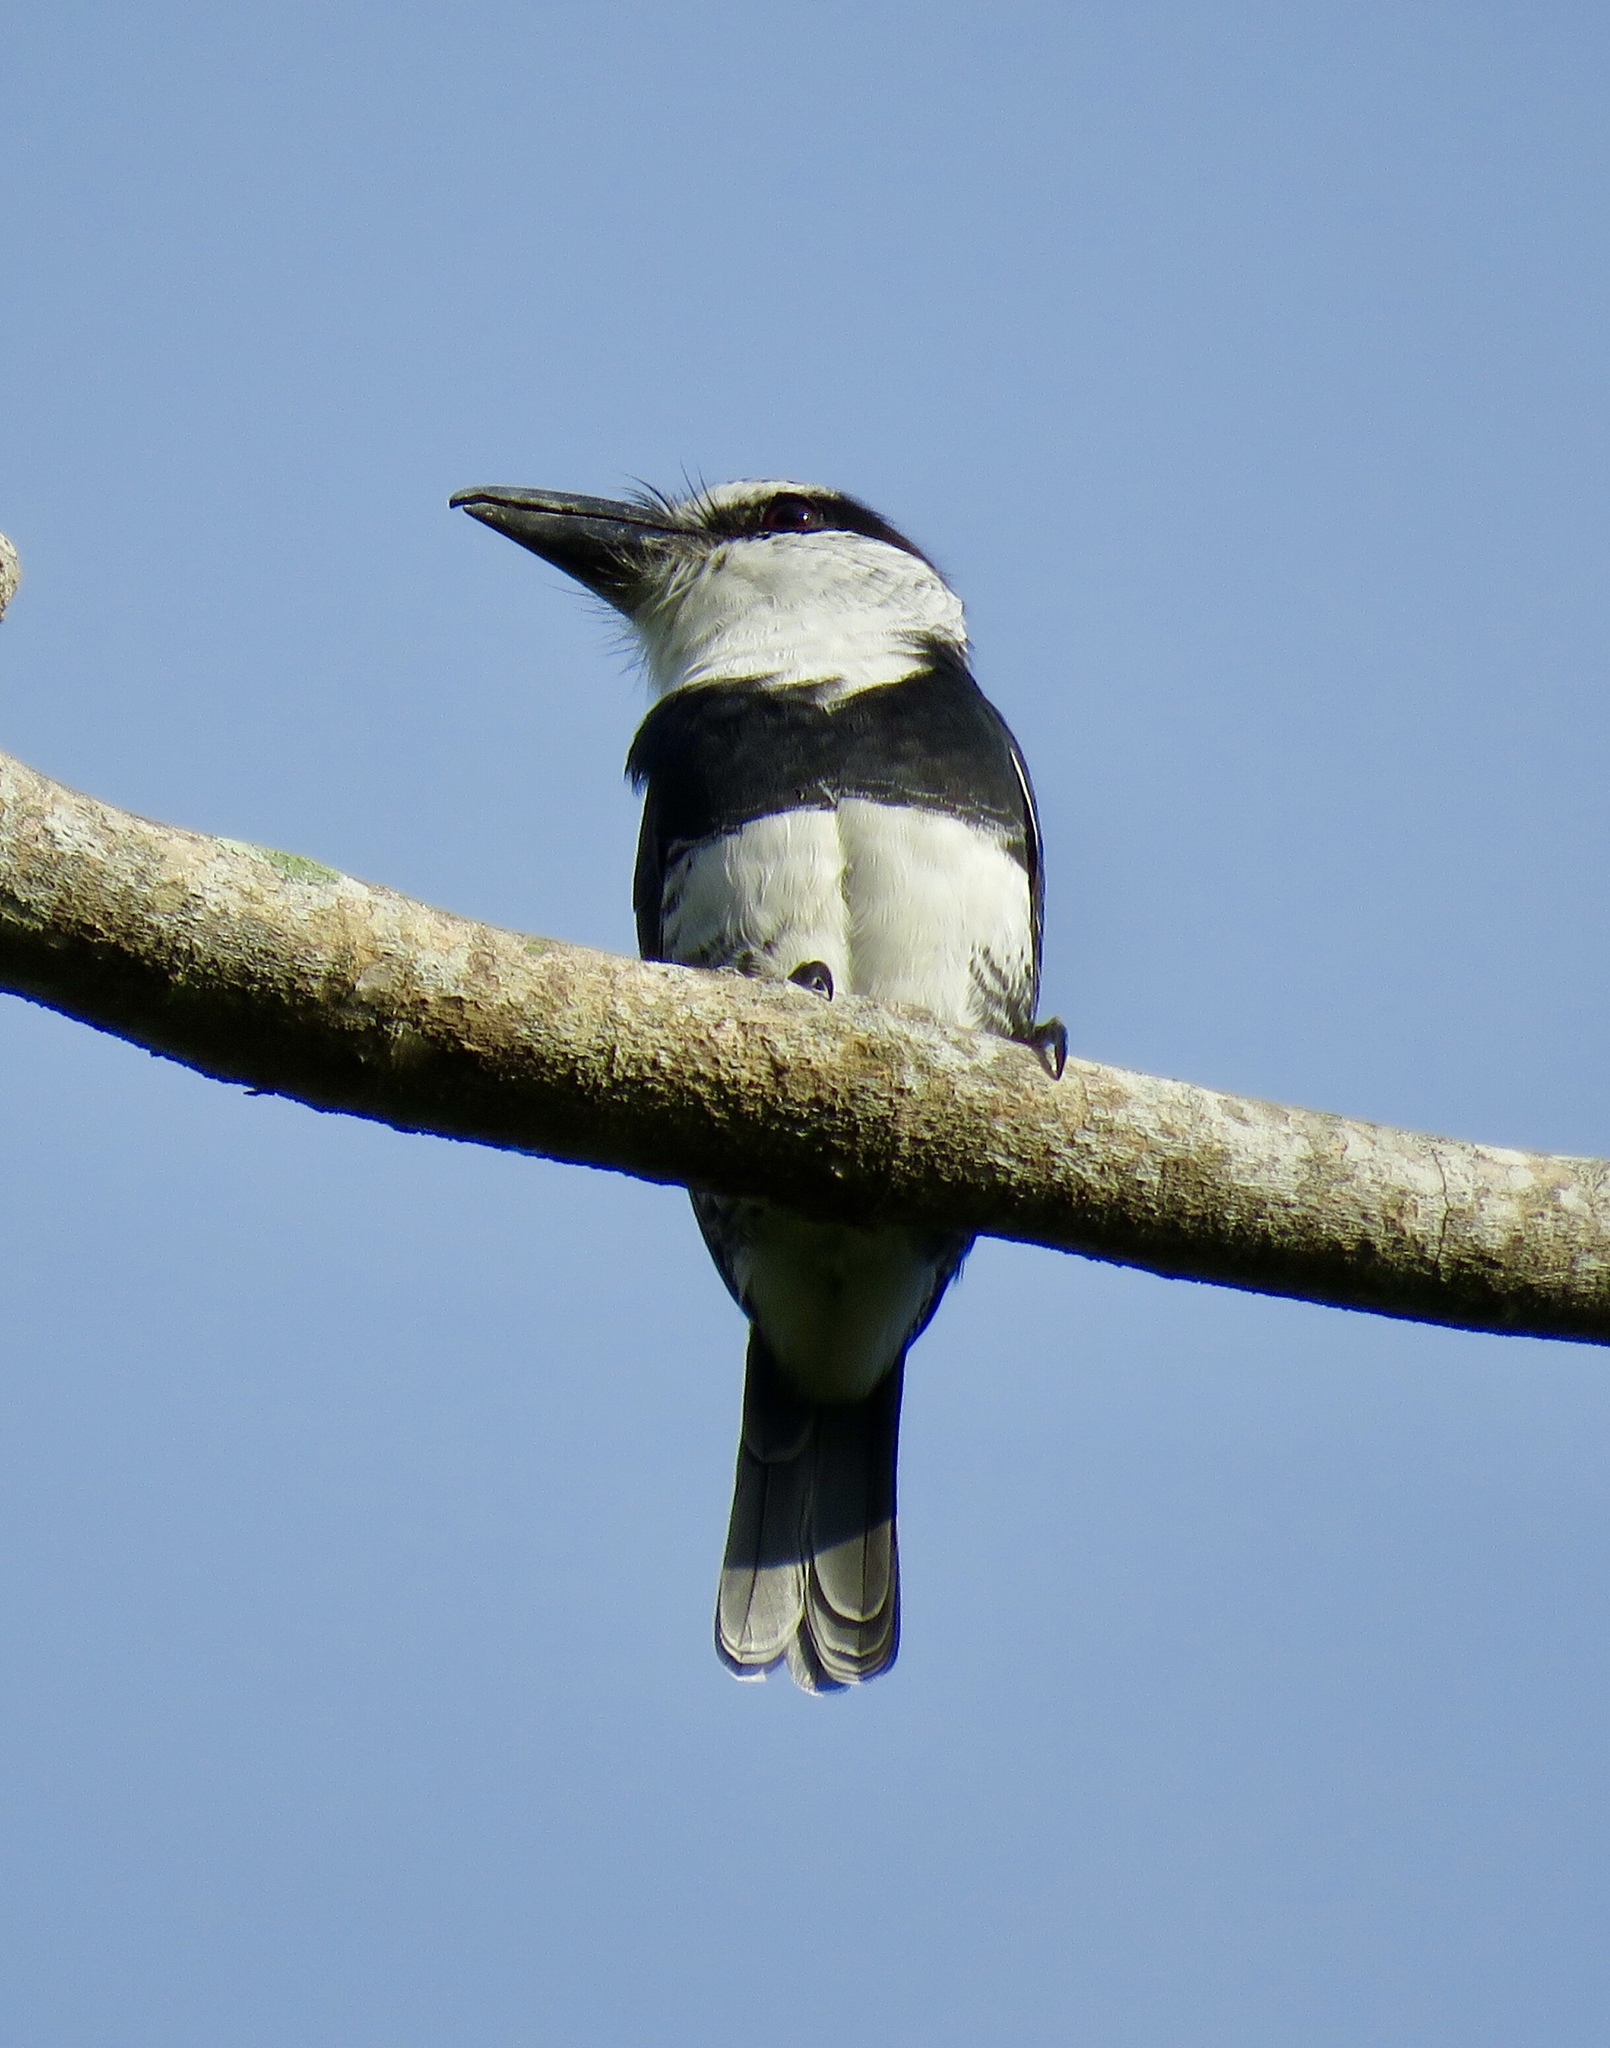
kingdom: Animalia
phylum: Chordata
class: Aves
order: Piciformes
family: Bucconidae
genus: Notharchus
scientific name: Notharchus hyperrhynchus
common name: White-necked puffbird
